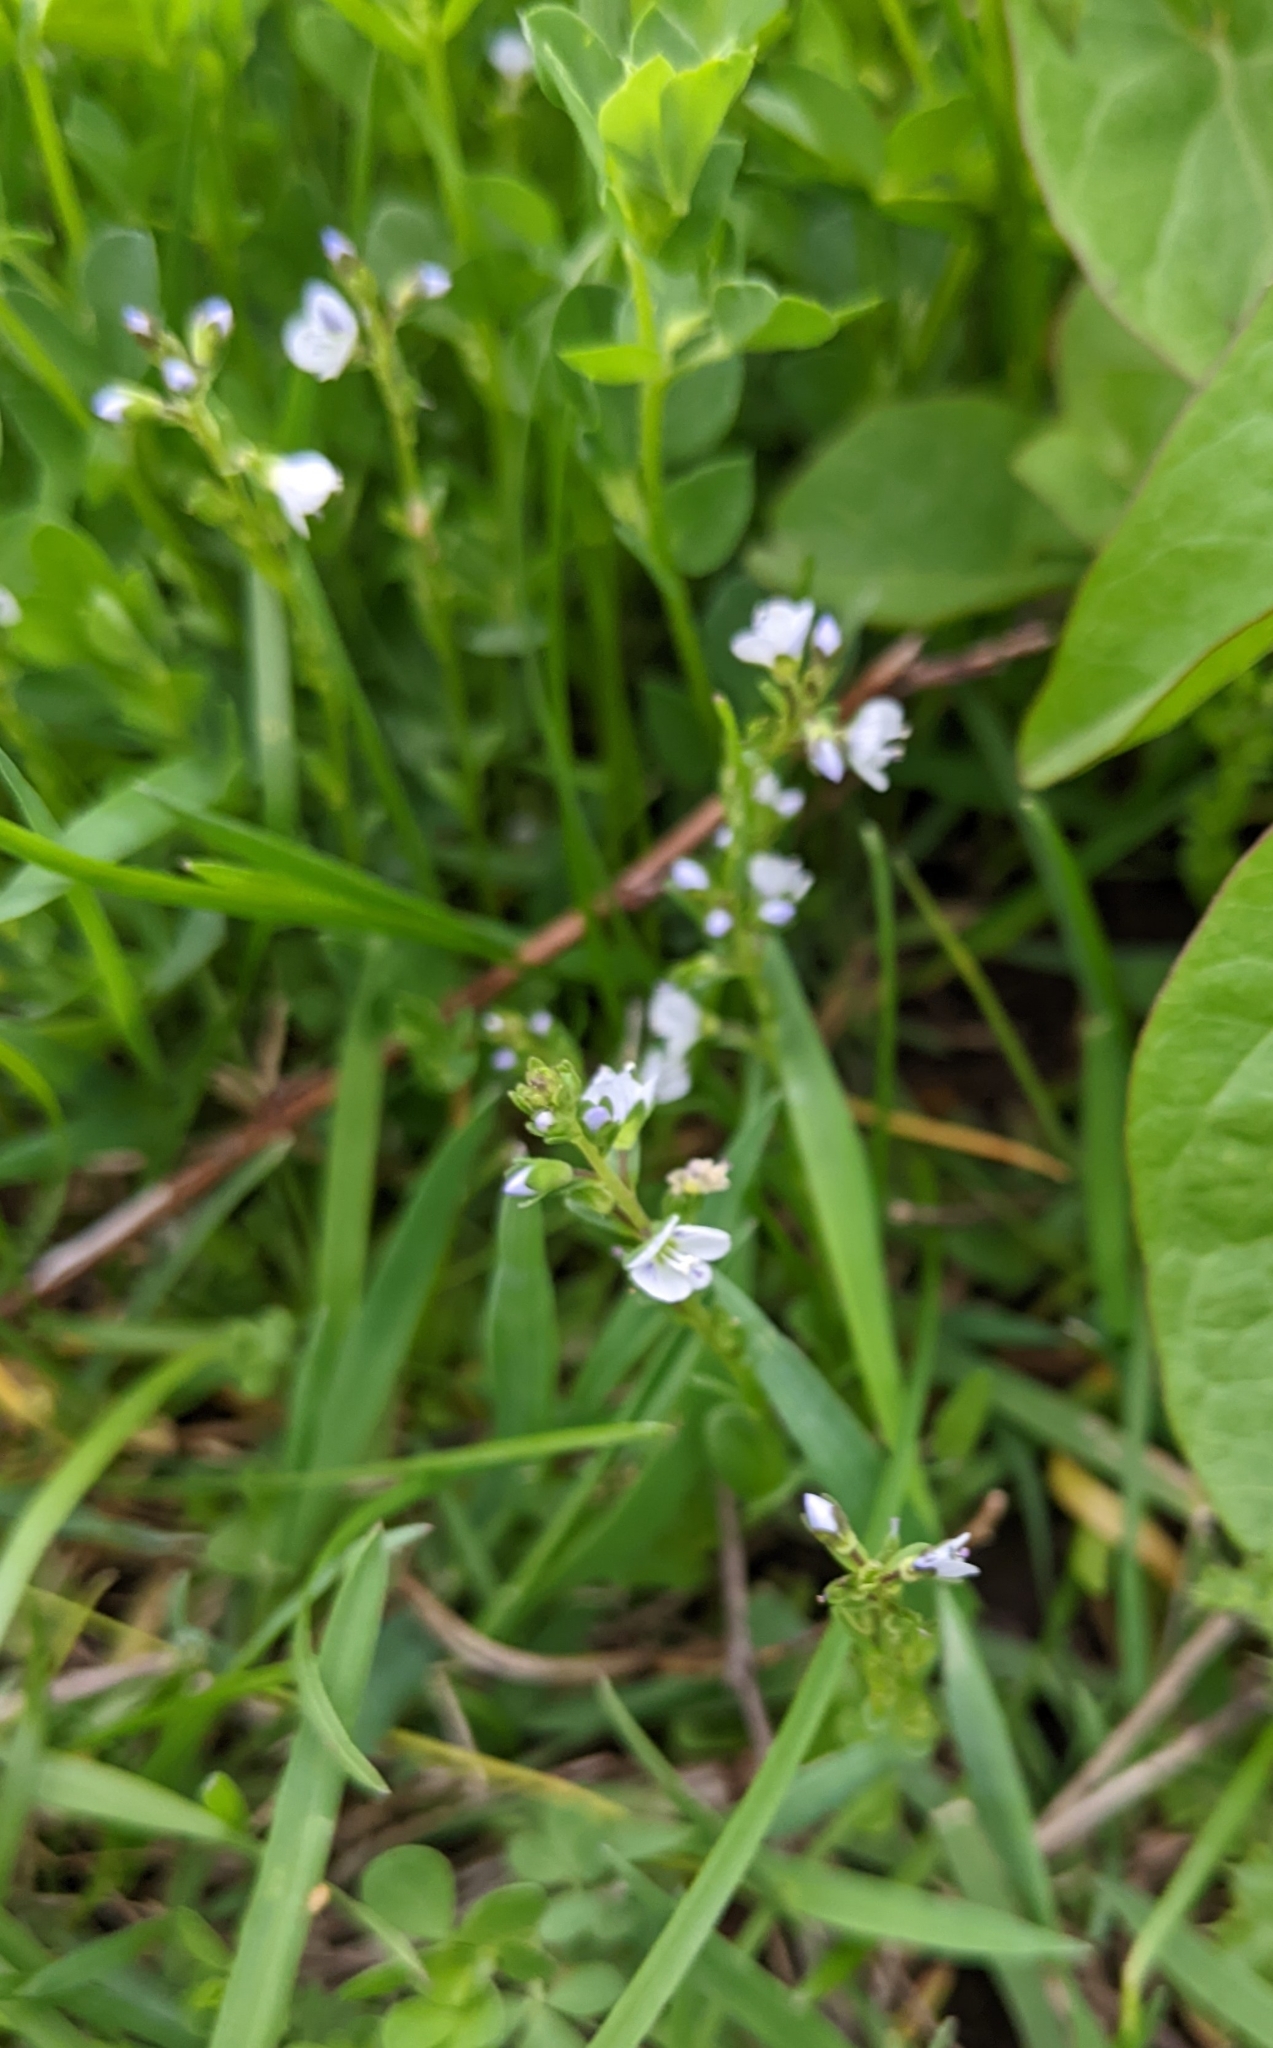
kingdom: Plantae
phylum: Tracheophyta
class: Magnoliopsida
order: Lamiales
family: Plantaginaceae
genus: Veronica
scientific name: Veronica serpyllifolia
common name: Thyme-leaved speedwell
